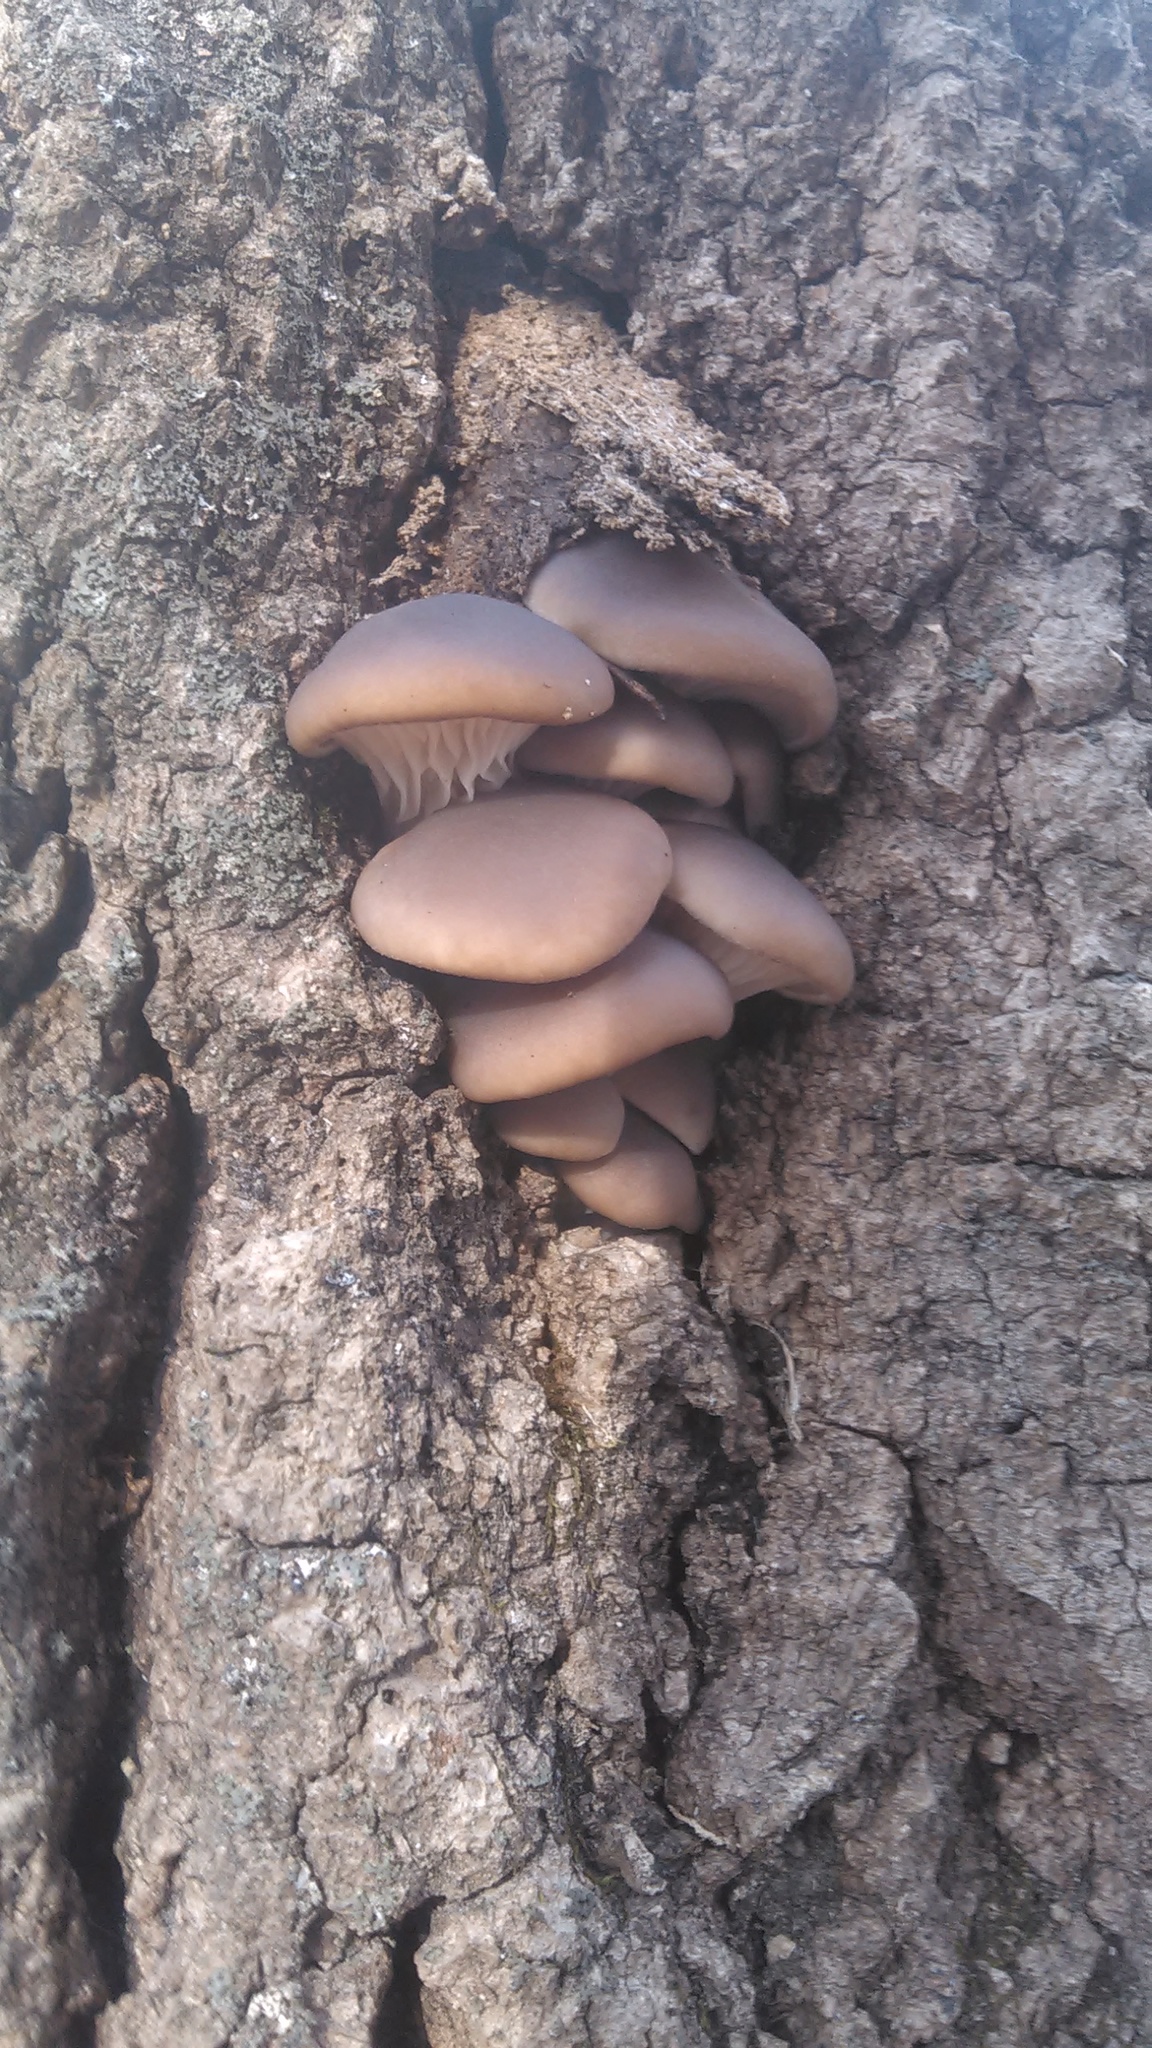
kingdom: Fungi
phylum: Basidiomycota
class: Agaricomycetes
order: Agaricales
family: Pleurotaceae
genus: Pleurotus
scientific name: Pleurotus populinus
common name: Aspen oyster mushroom
